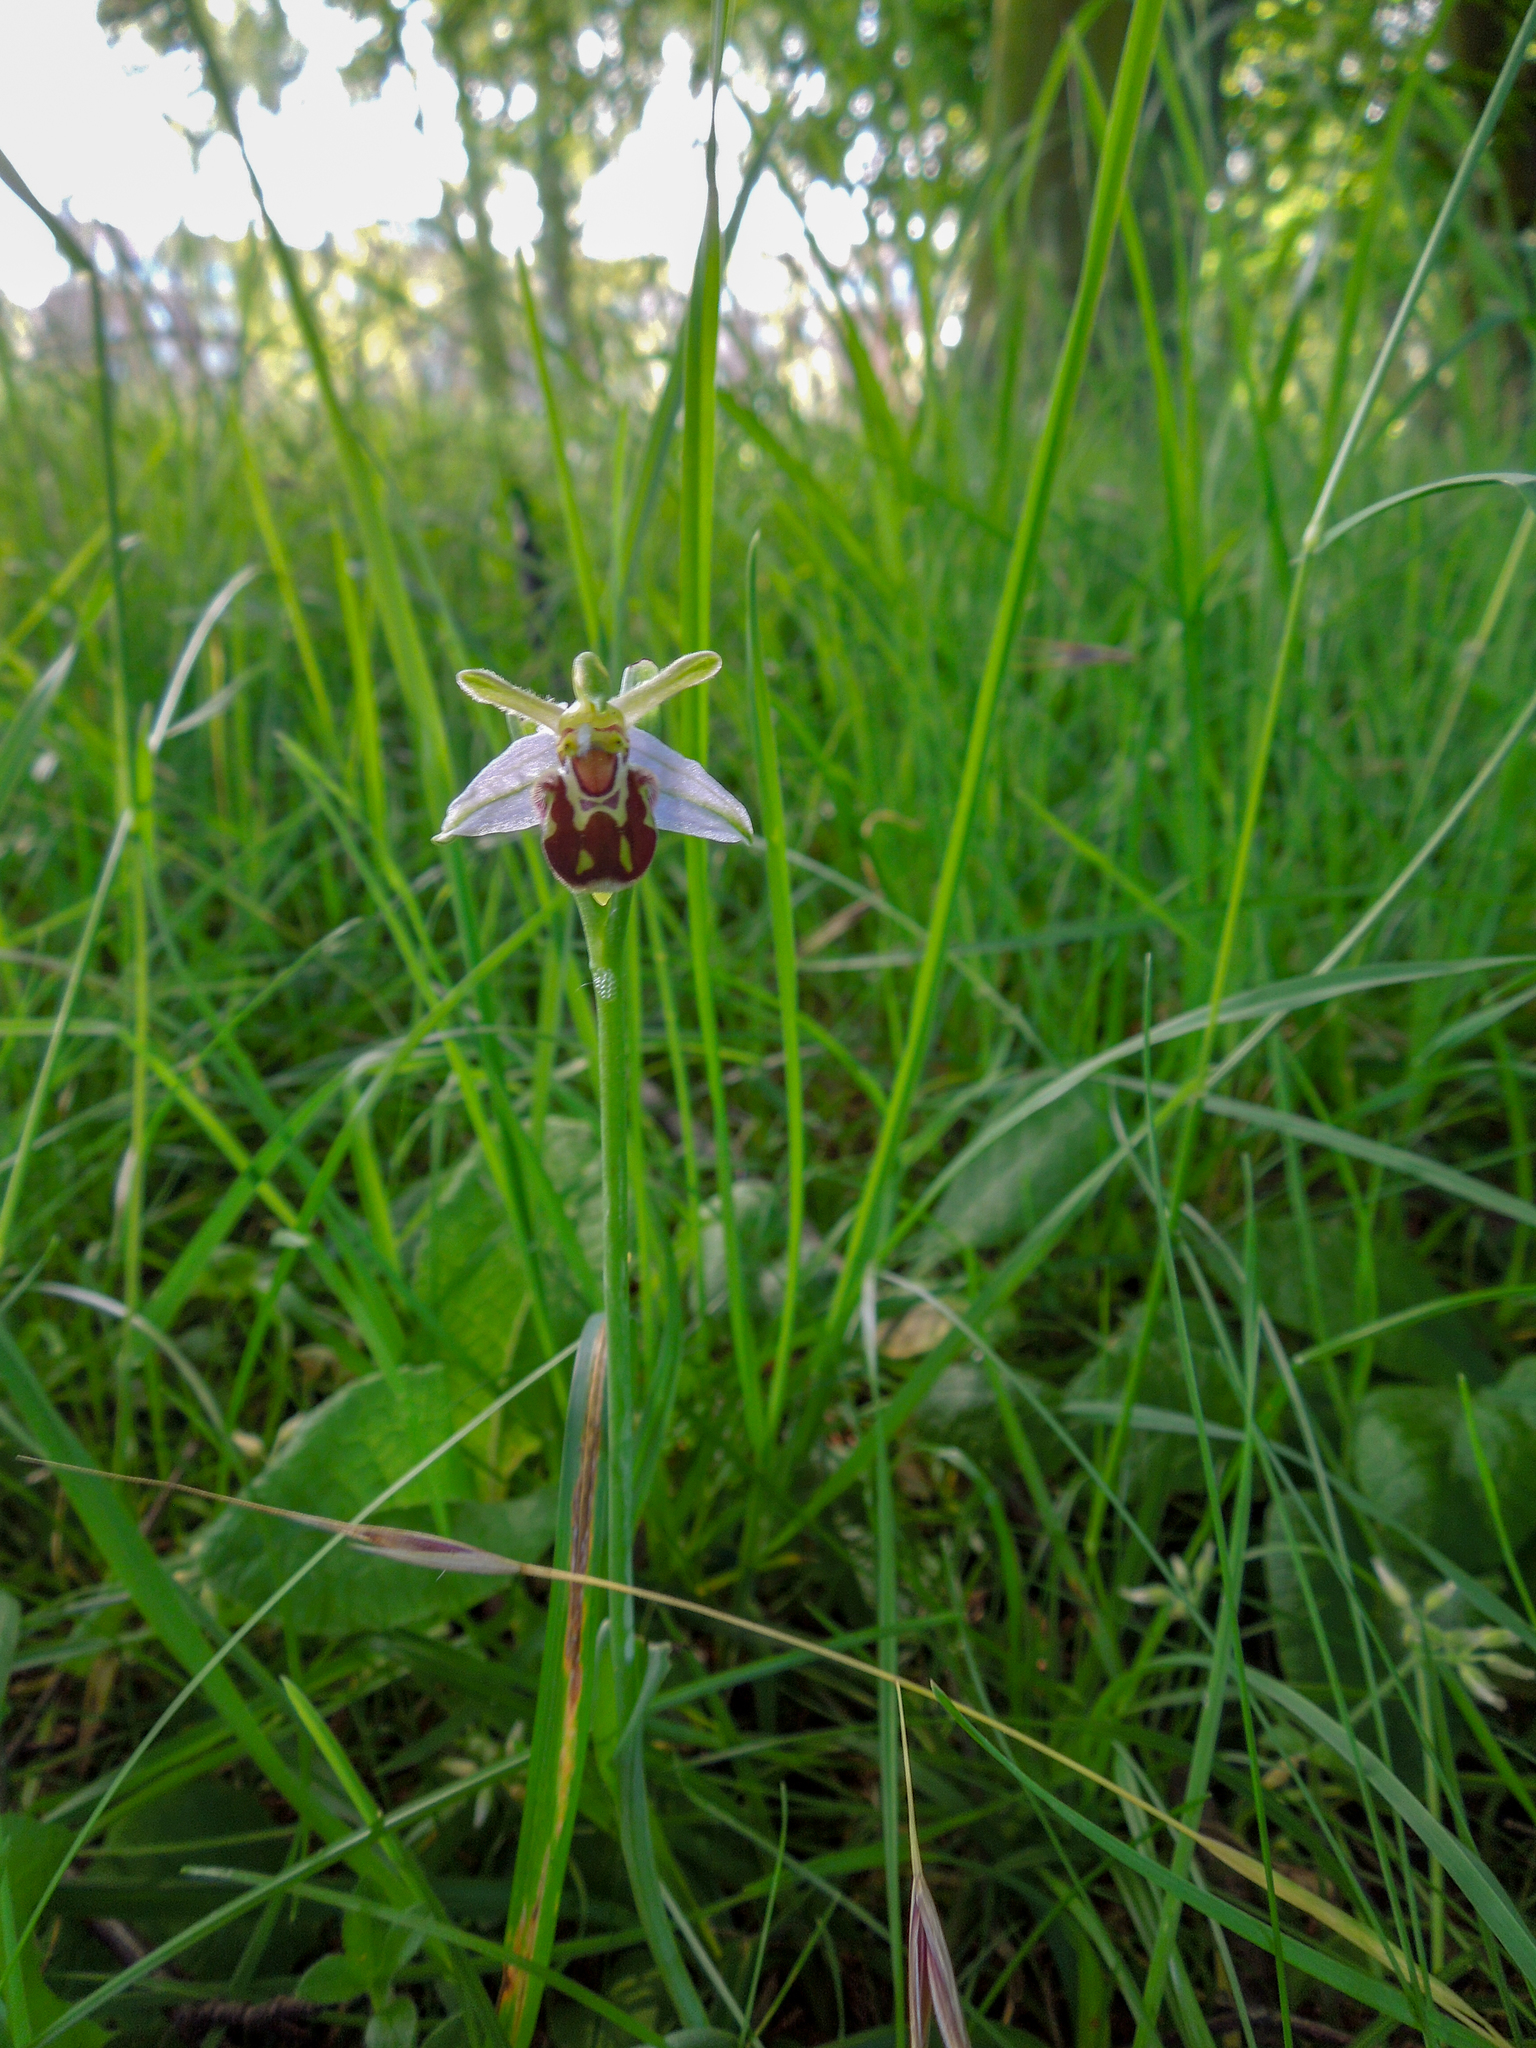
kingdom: Plantae
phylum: Tracheophyta
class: Liliopsida
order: Asparagales
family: Orchidaceae
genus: Ophrys
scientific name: Ophrys apifera
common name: Bee orchid
